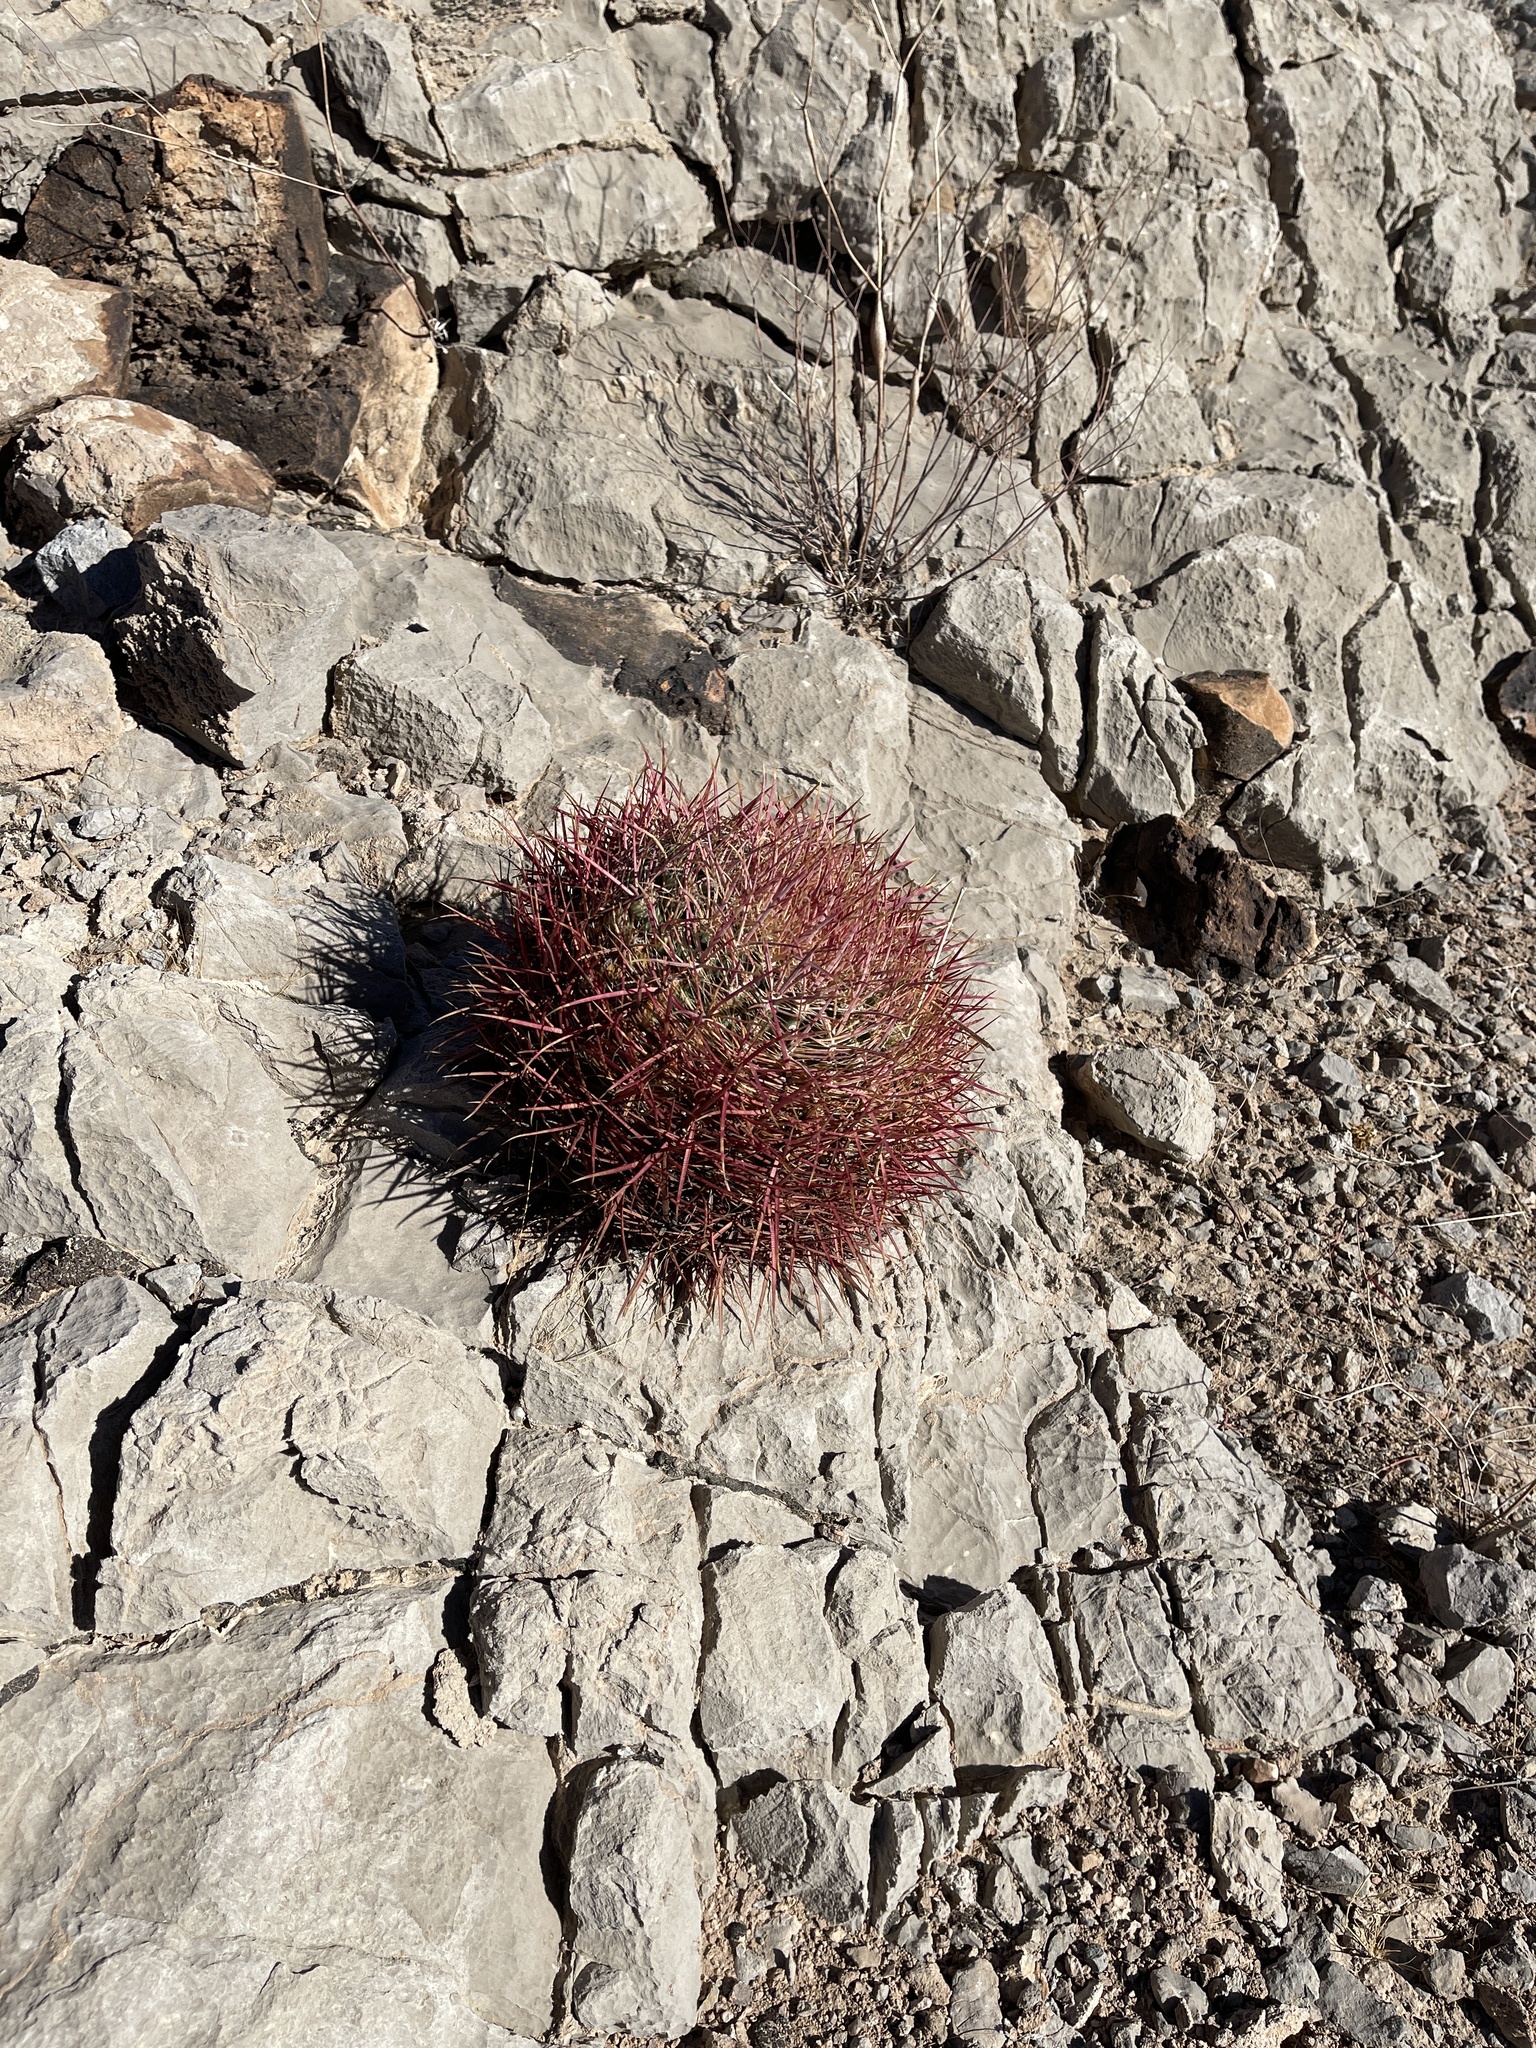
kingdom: Plantae
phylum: Tracheophyta
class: Magnoliopsida
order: Caryophyllales
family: Cactaceae
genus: Ferocactus
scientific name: Ferocactus cylindraceus
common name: California barrel cactus
